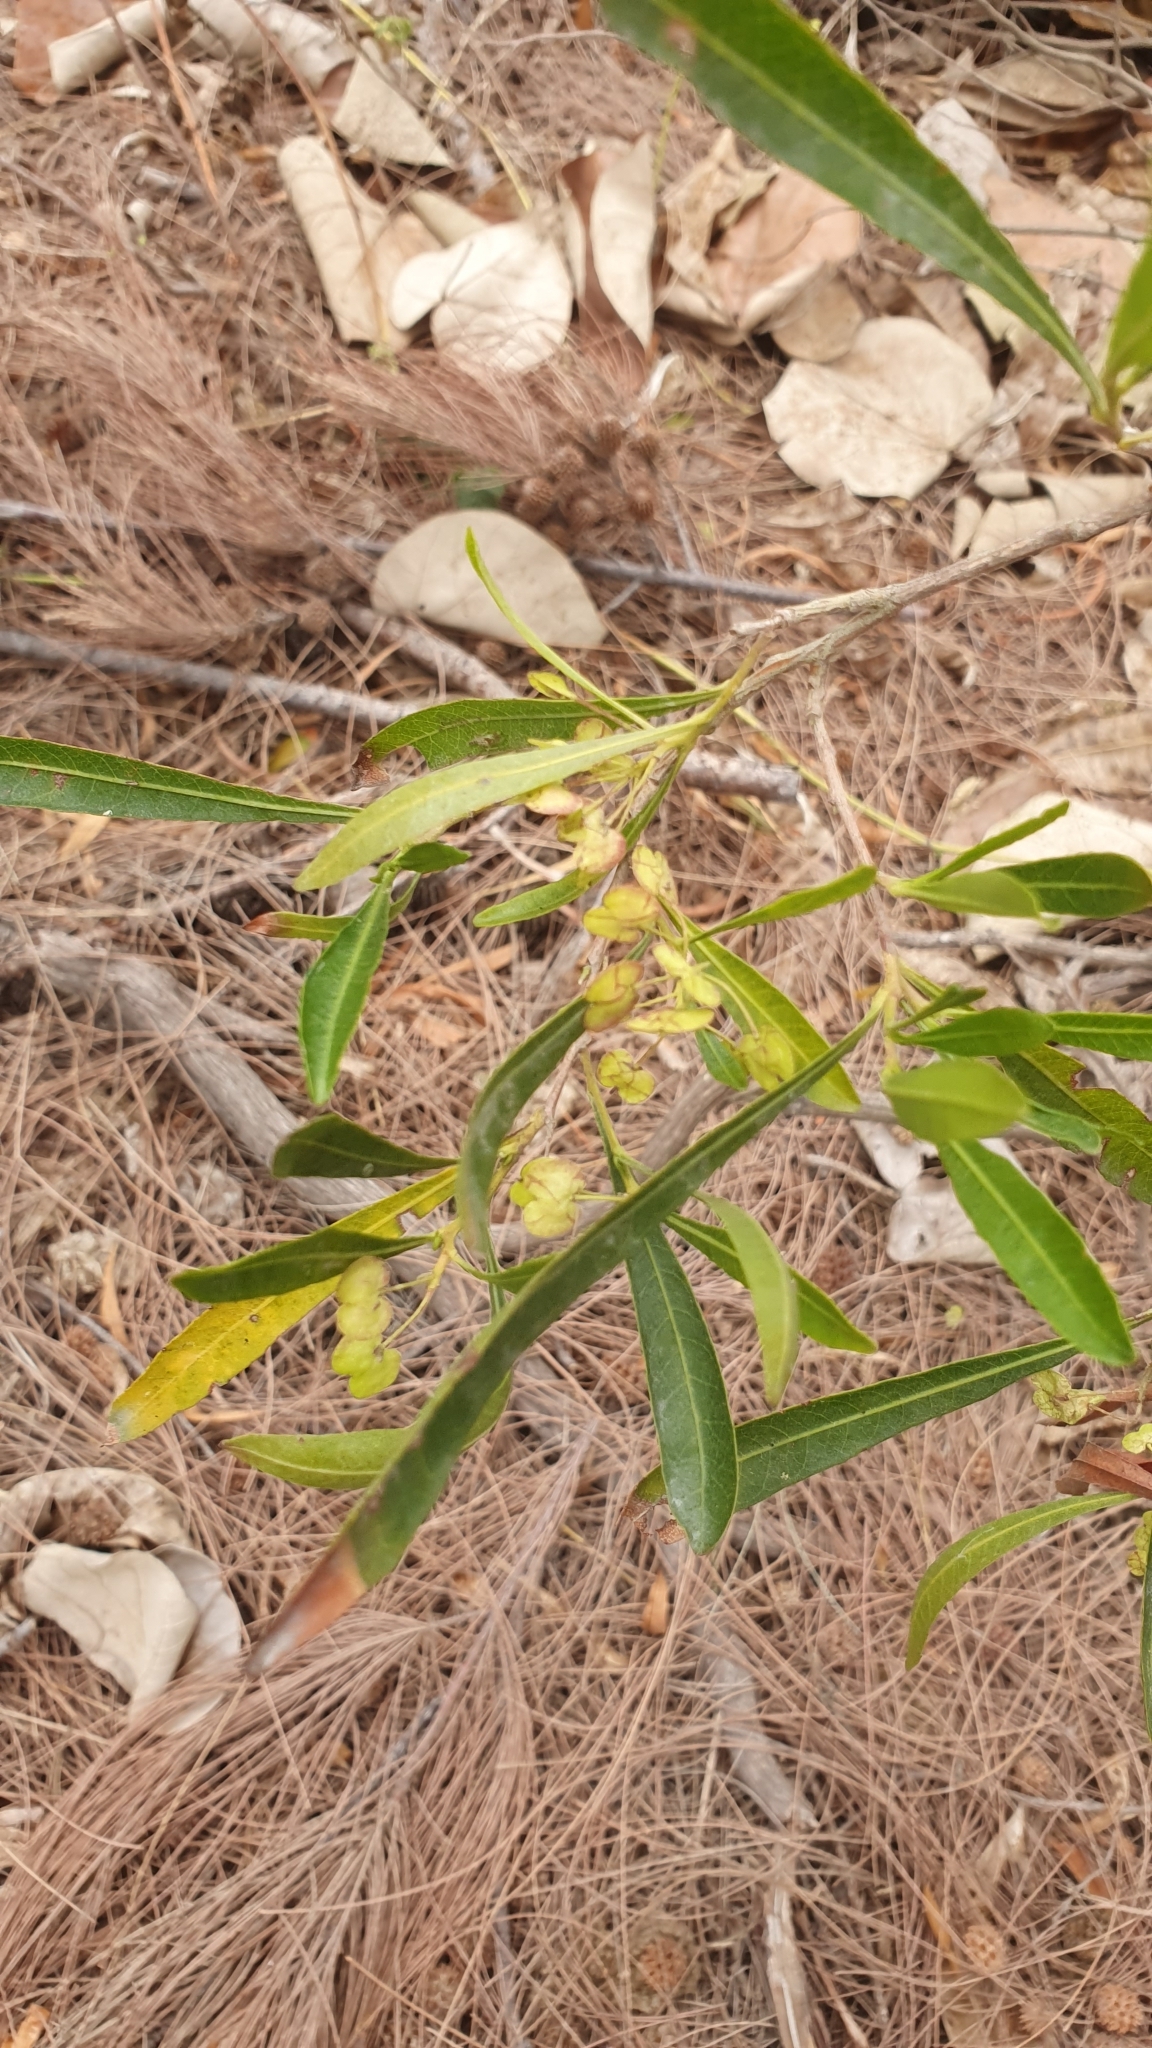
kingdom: Plantae
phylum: Tracheophyta
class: Magnoliopsida
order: Sapindales
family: Sapindaceae
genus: Dodonaea
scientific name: Dodonaea viscosa
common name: Hopbush
